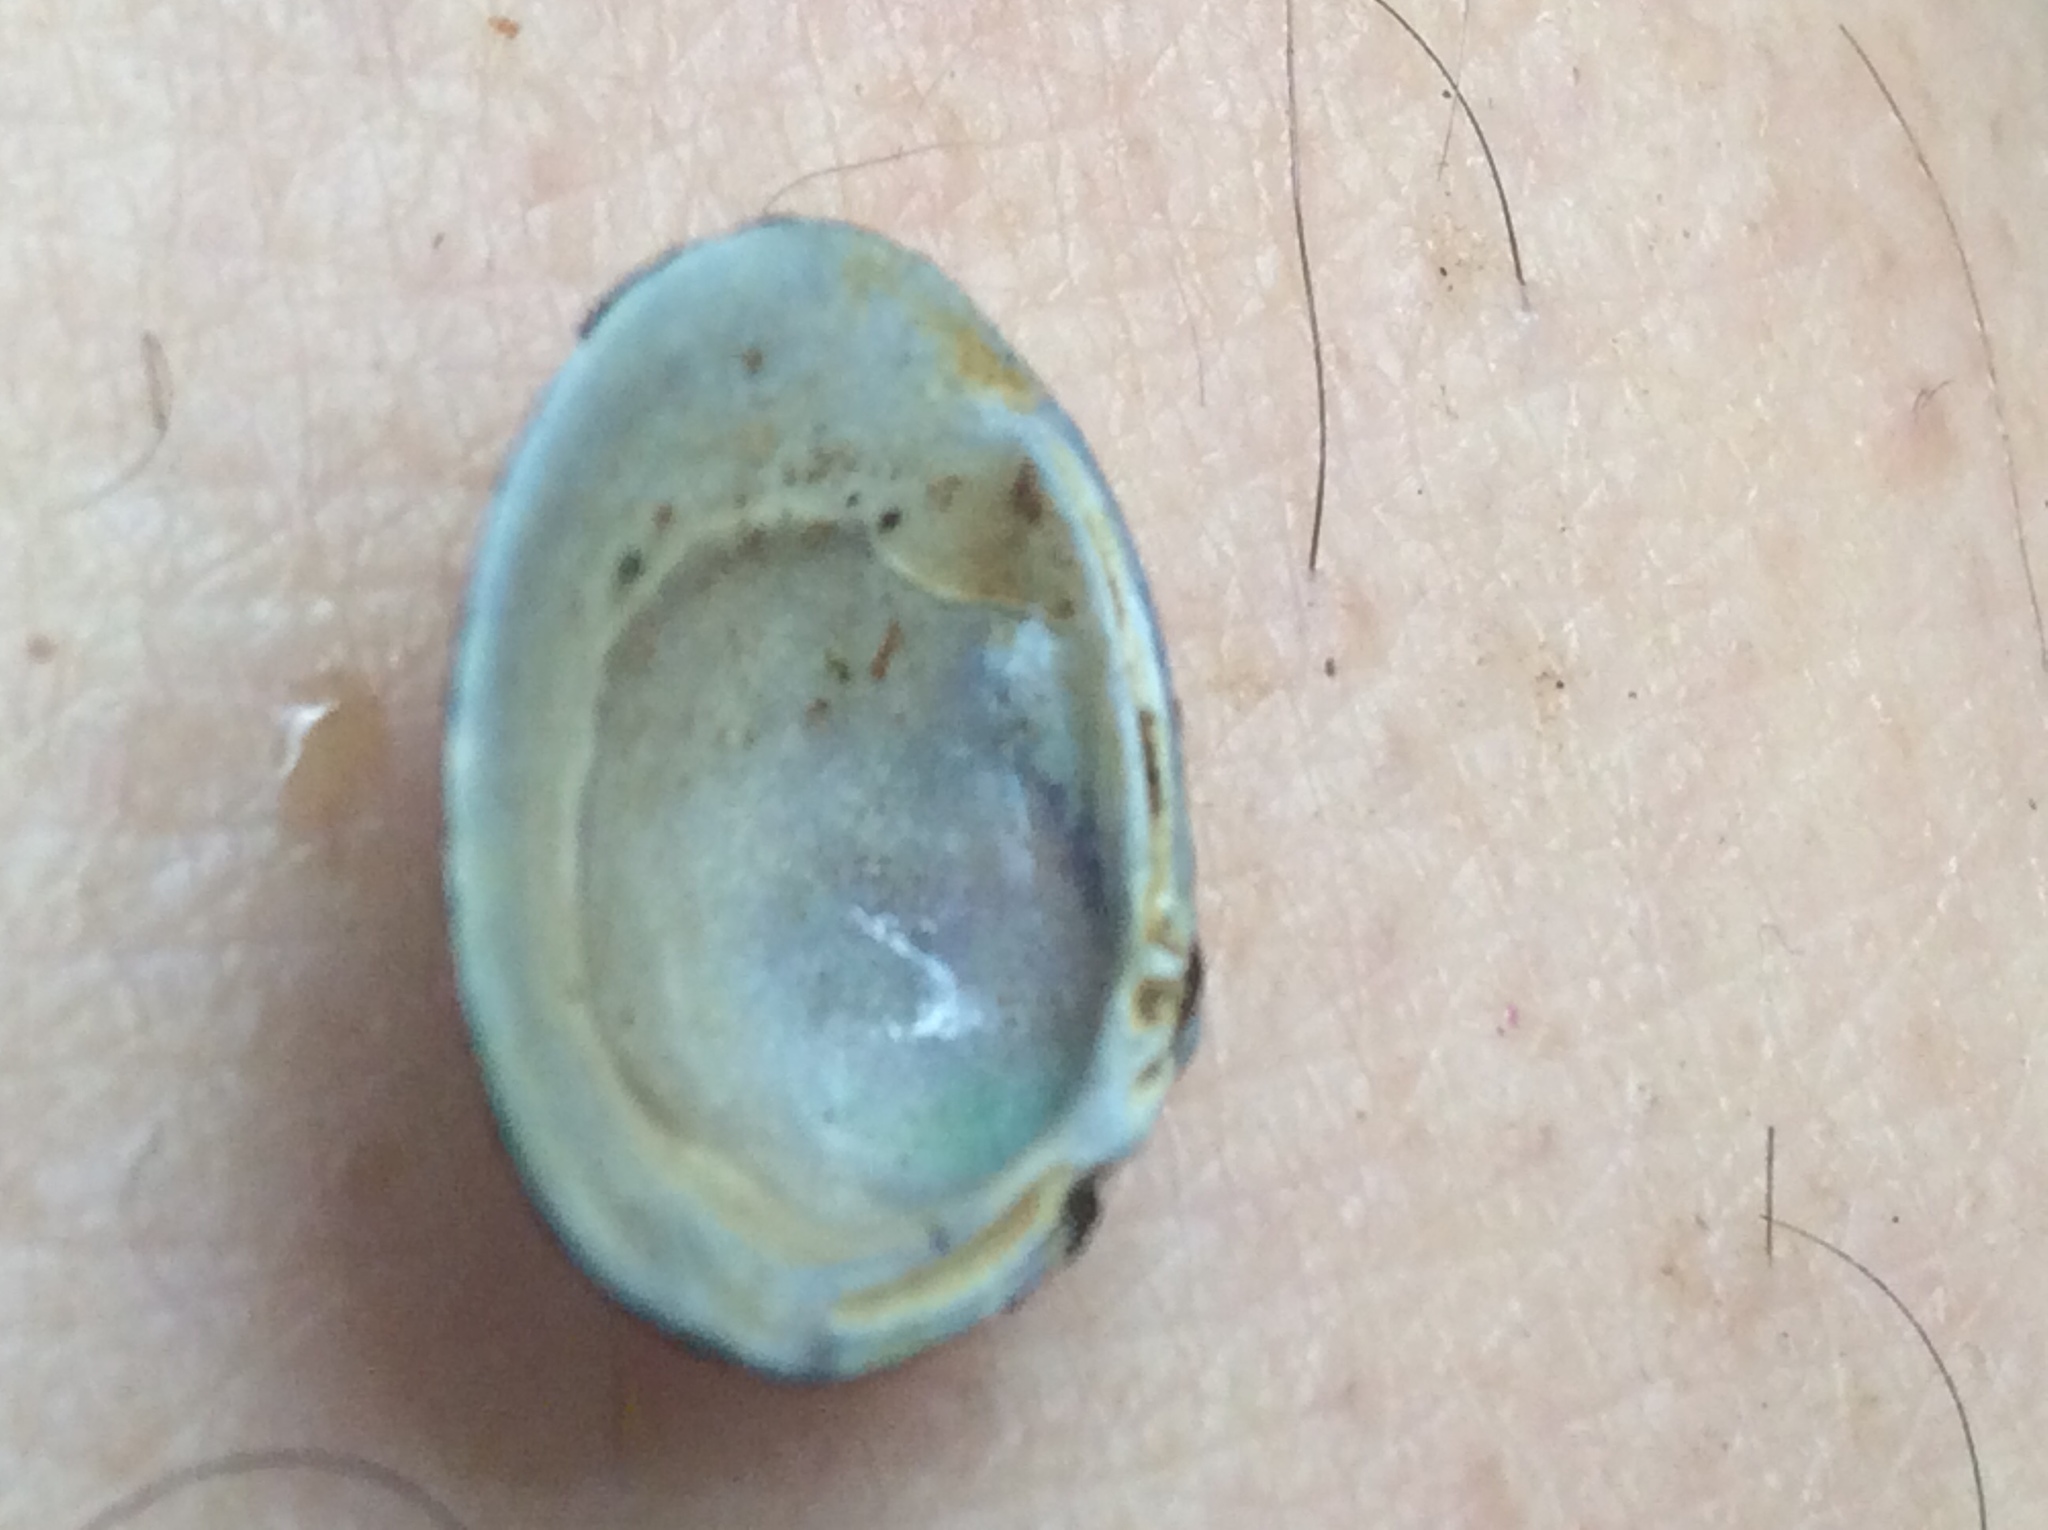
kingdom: Animalia
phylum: Mollusca
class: Bivalvia
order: Venerida
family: Cyrenidae
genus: Corbicula
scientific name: Corbicula fluminea
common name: Asian clam
